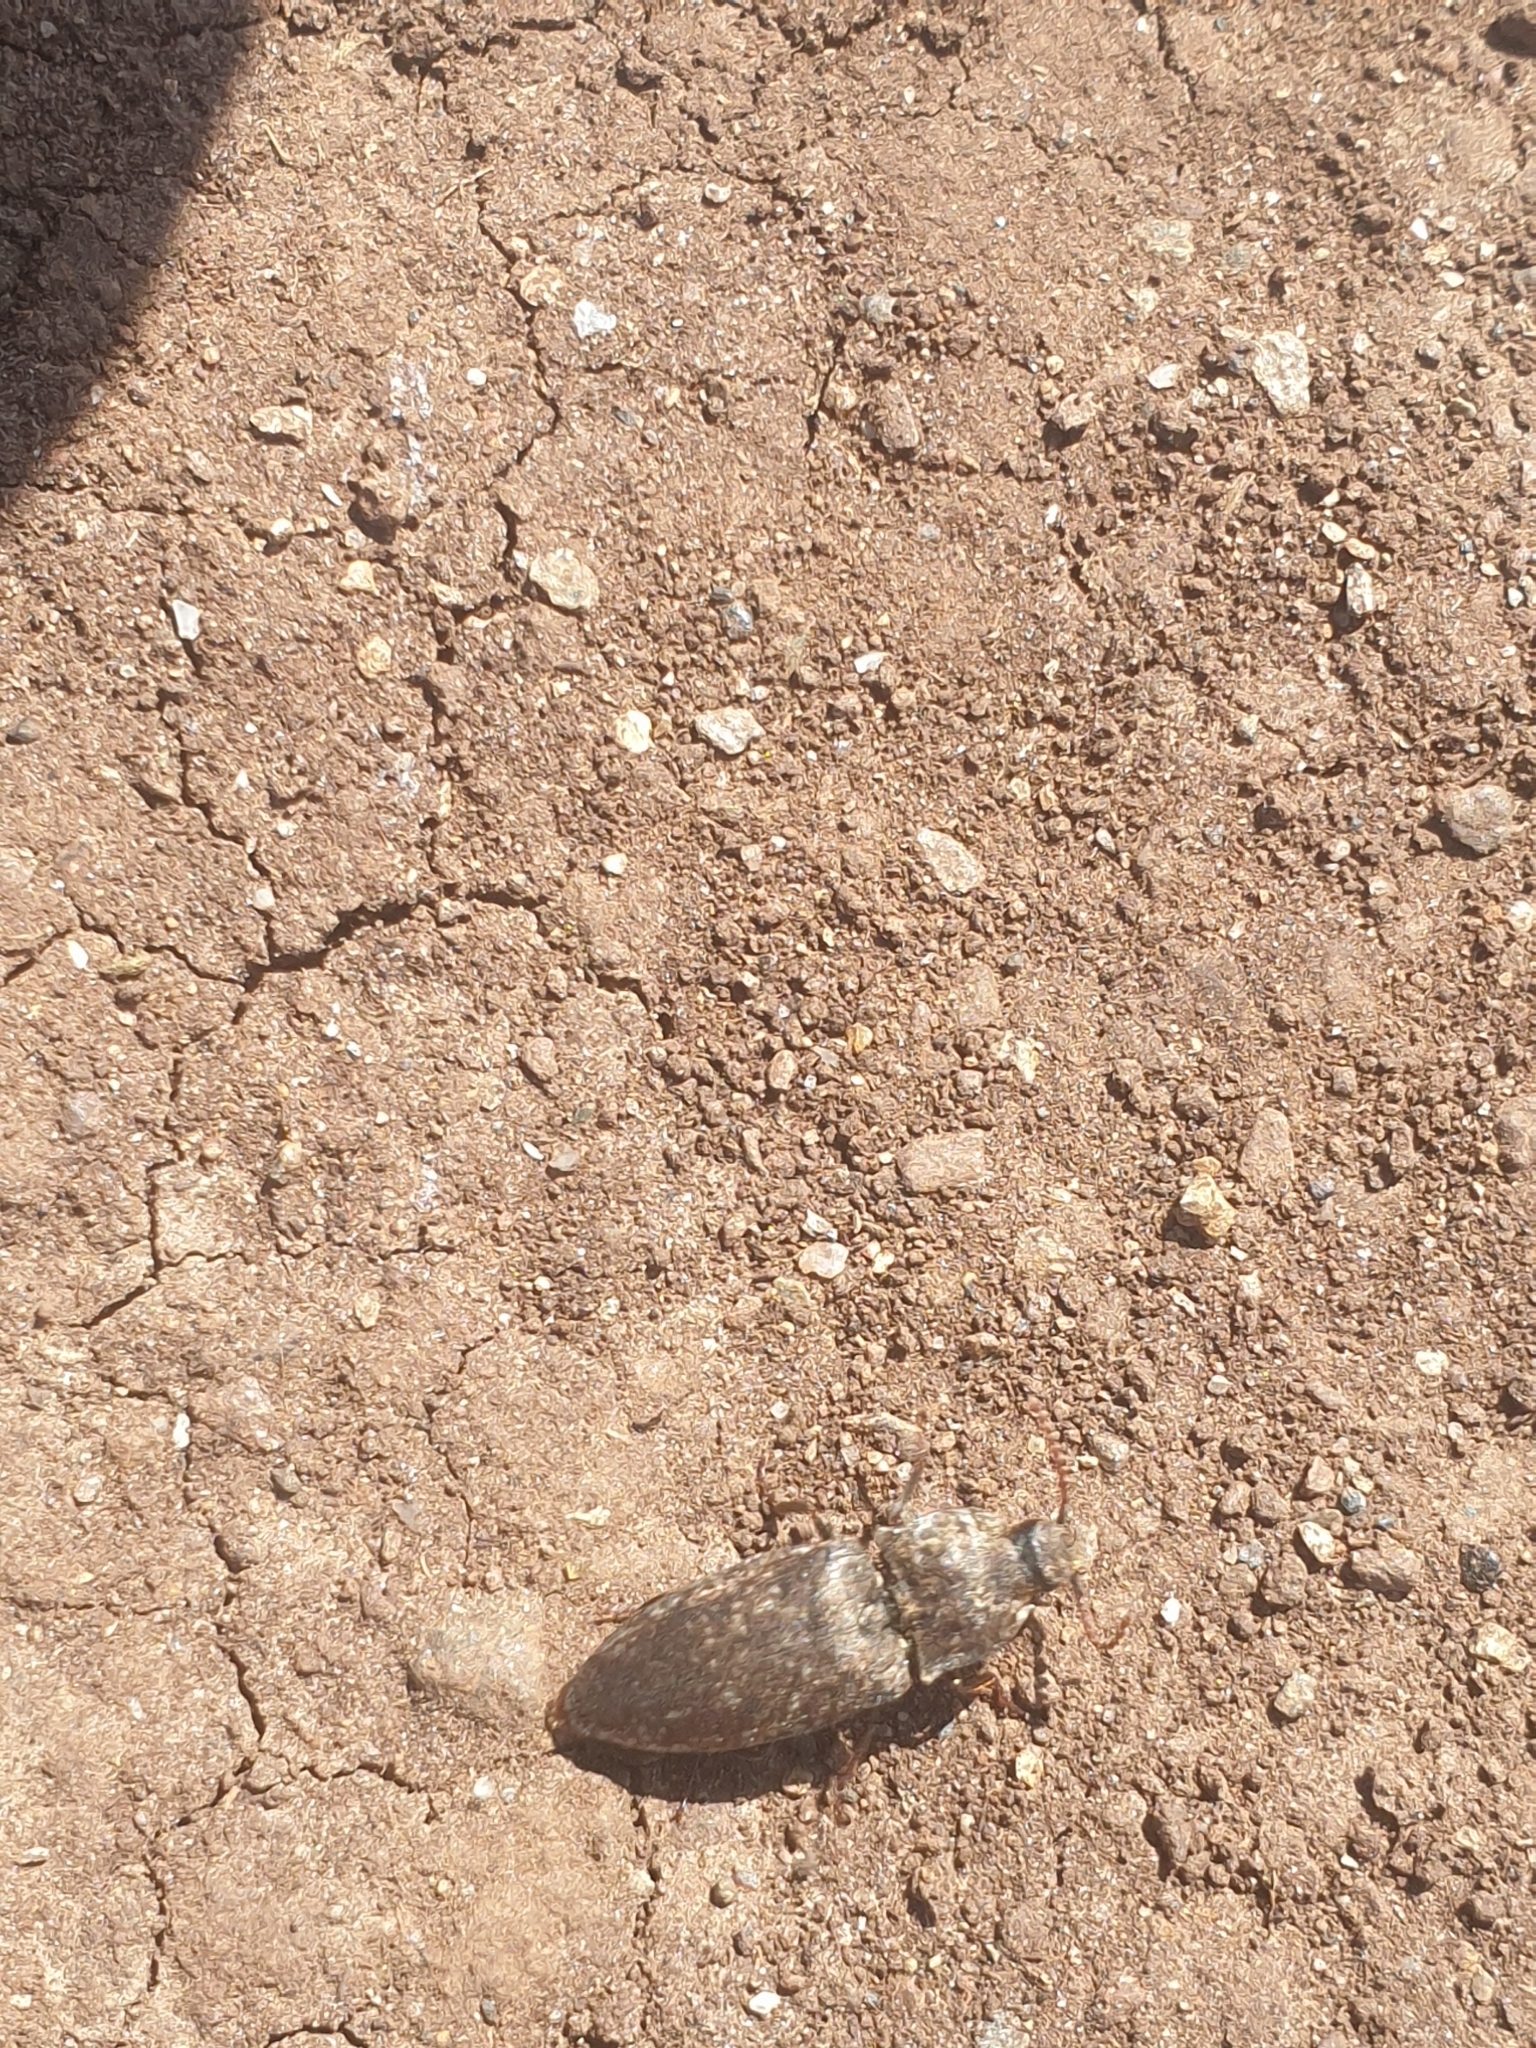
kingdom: Animalia
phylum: Arthropoda
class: Insecta
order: Coleoptera
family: Elateridae
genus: Agrypnus
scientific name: Agrypnus murinus
